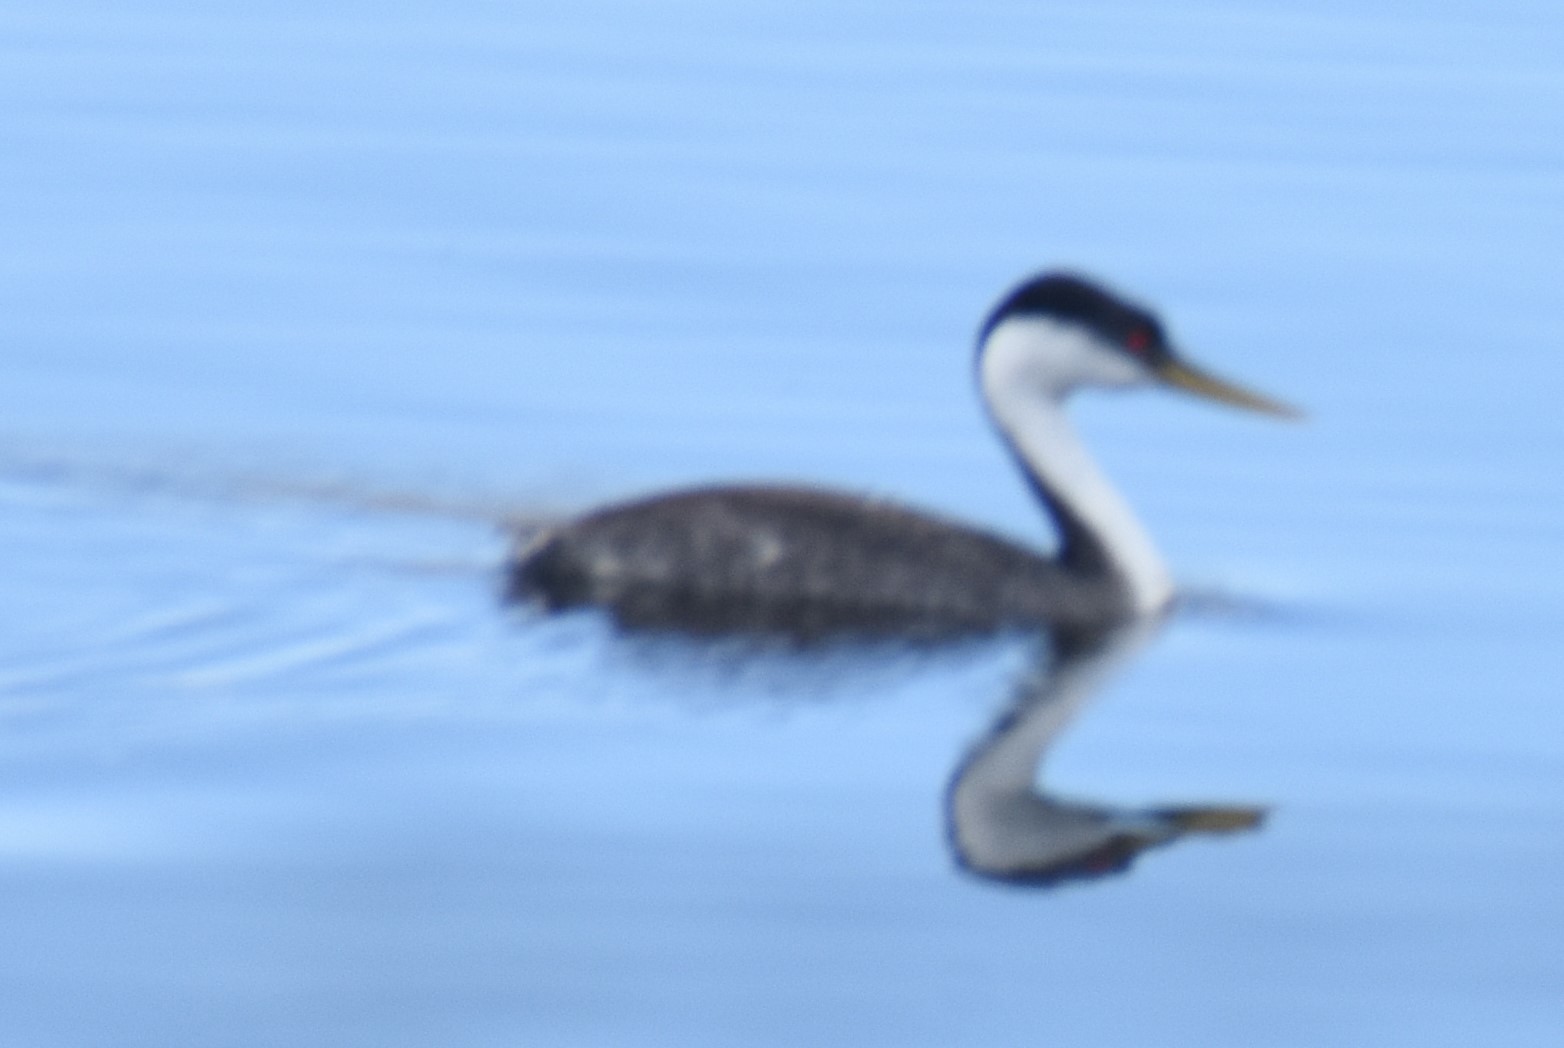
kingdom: Animalia
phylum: Chordata
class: Aves
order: Podicipediformes
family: Podicipedidae
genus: Aechmophorus
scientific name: Aechmophorus occidentalis
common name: Western grebe
